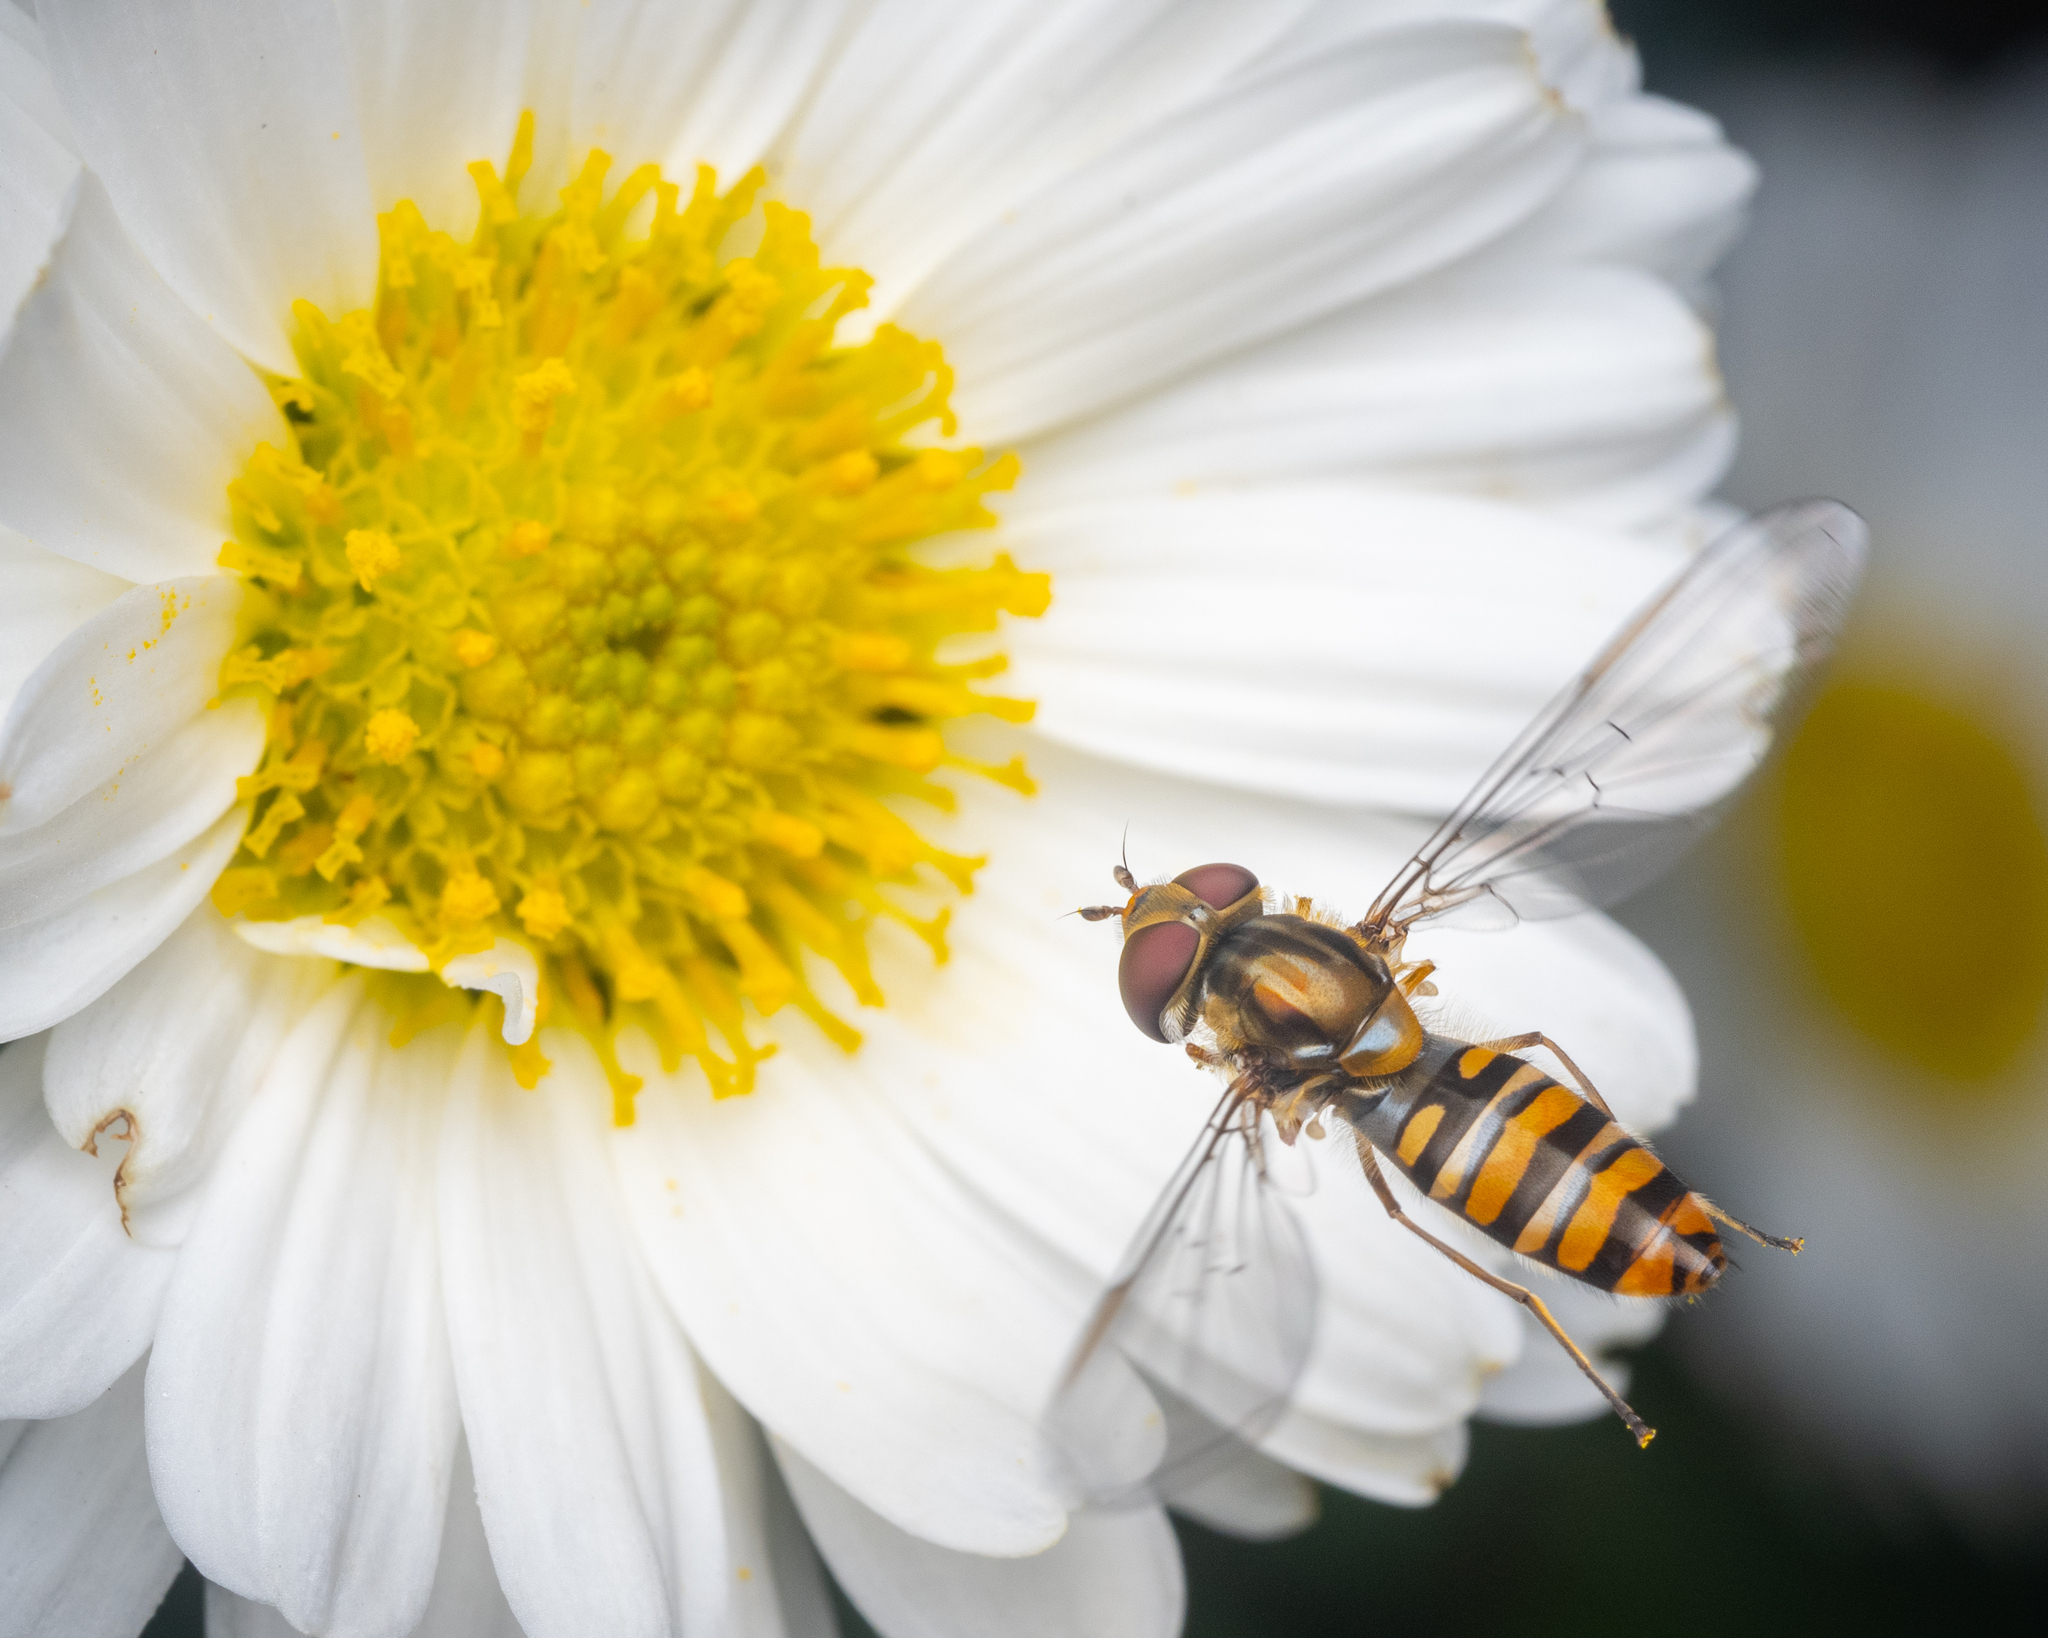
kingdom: Animalia
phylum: Arthropoda
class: Insecta
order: Diptera
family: Syrphidae
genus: Episyrphus
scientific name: Episyrphus balteatus
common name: Marmalade hoverfly
